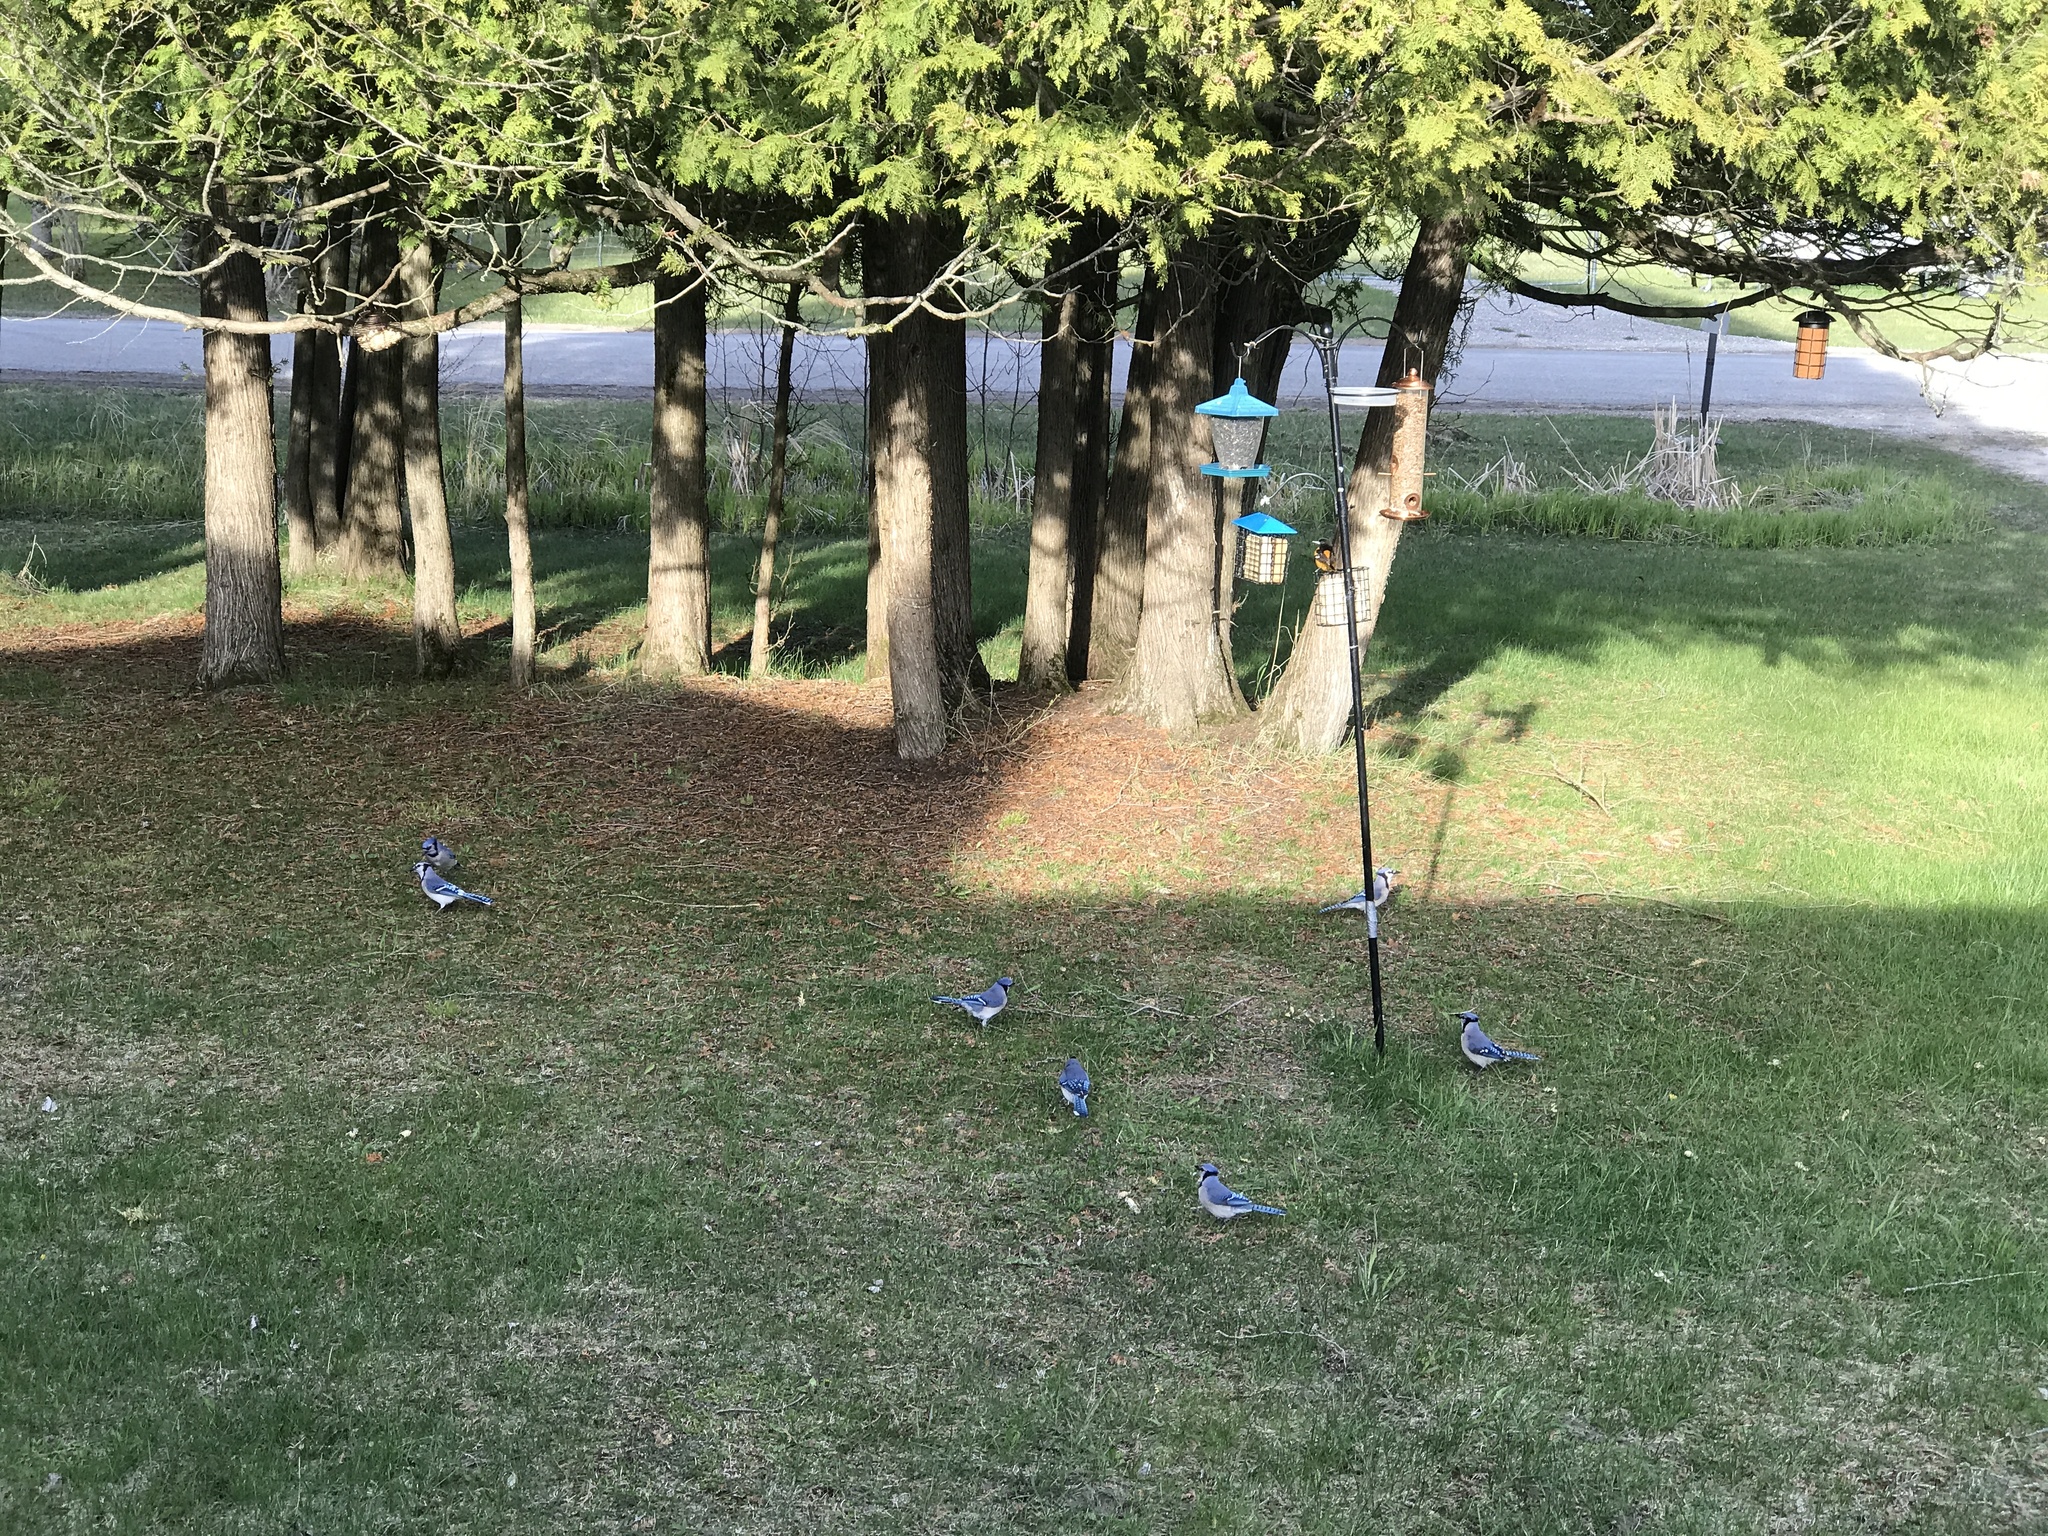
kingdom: Animalia
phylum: Chordata
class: Aves
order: Passeriformes
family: Corvidae
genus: Cyanocitta
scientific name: Cyanocitta cristata
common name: Blue jay
